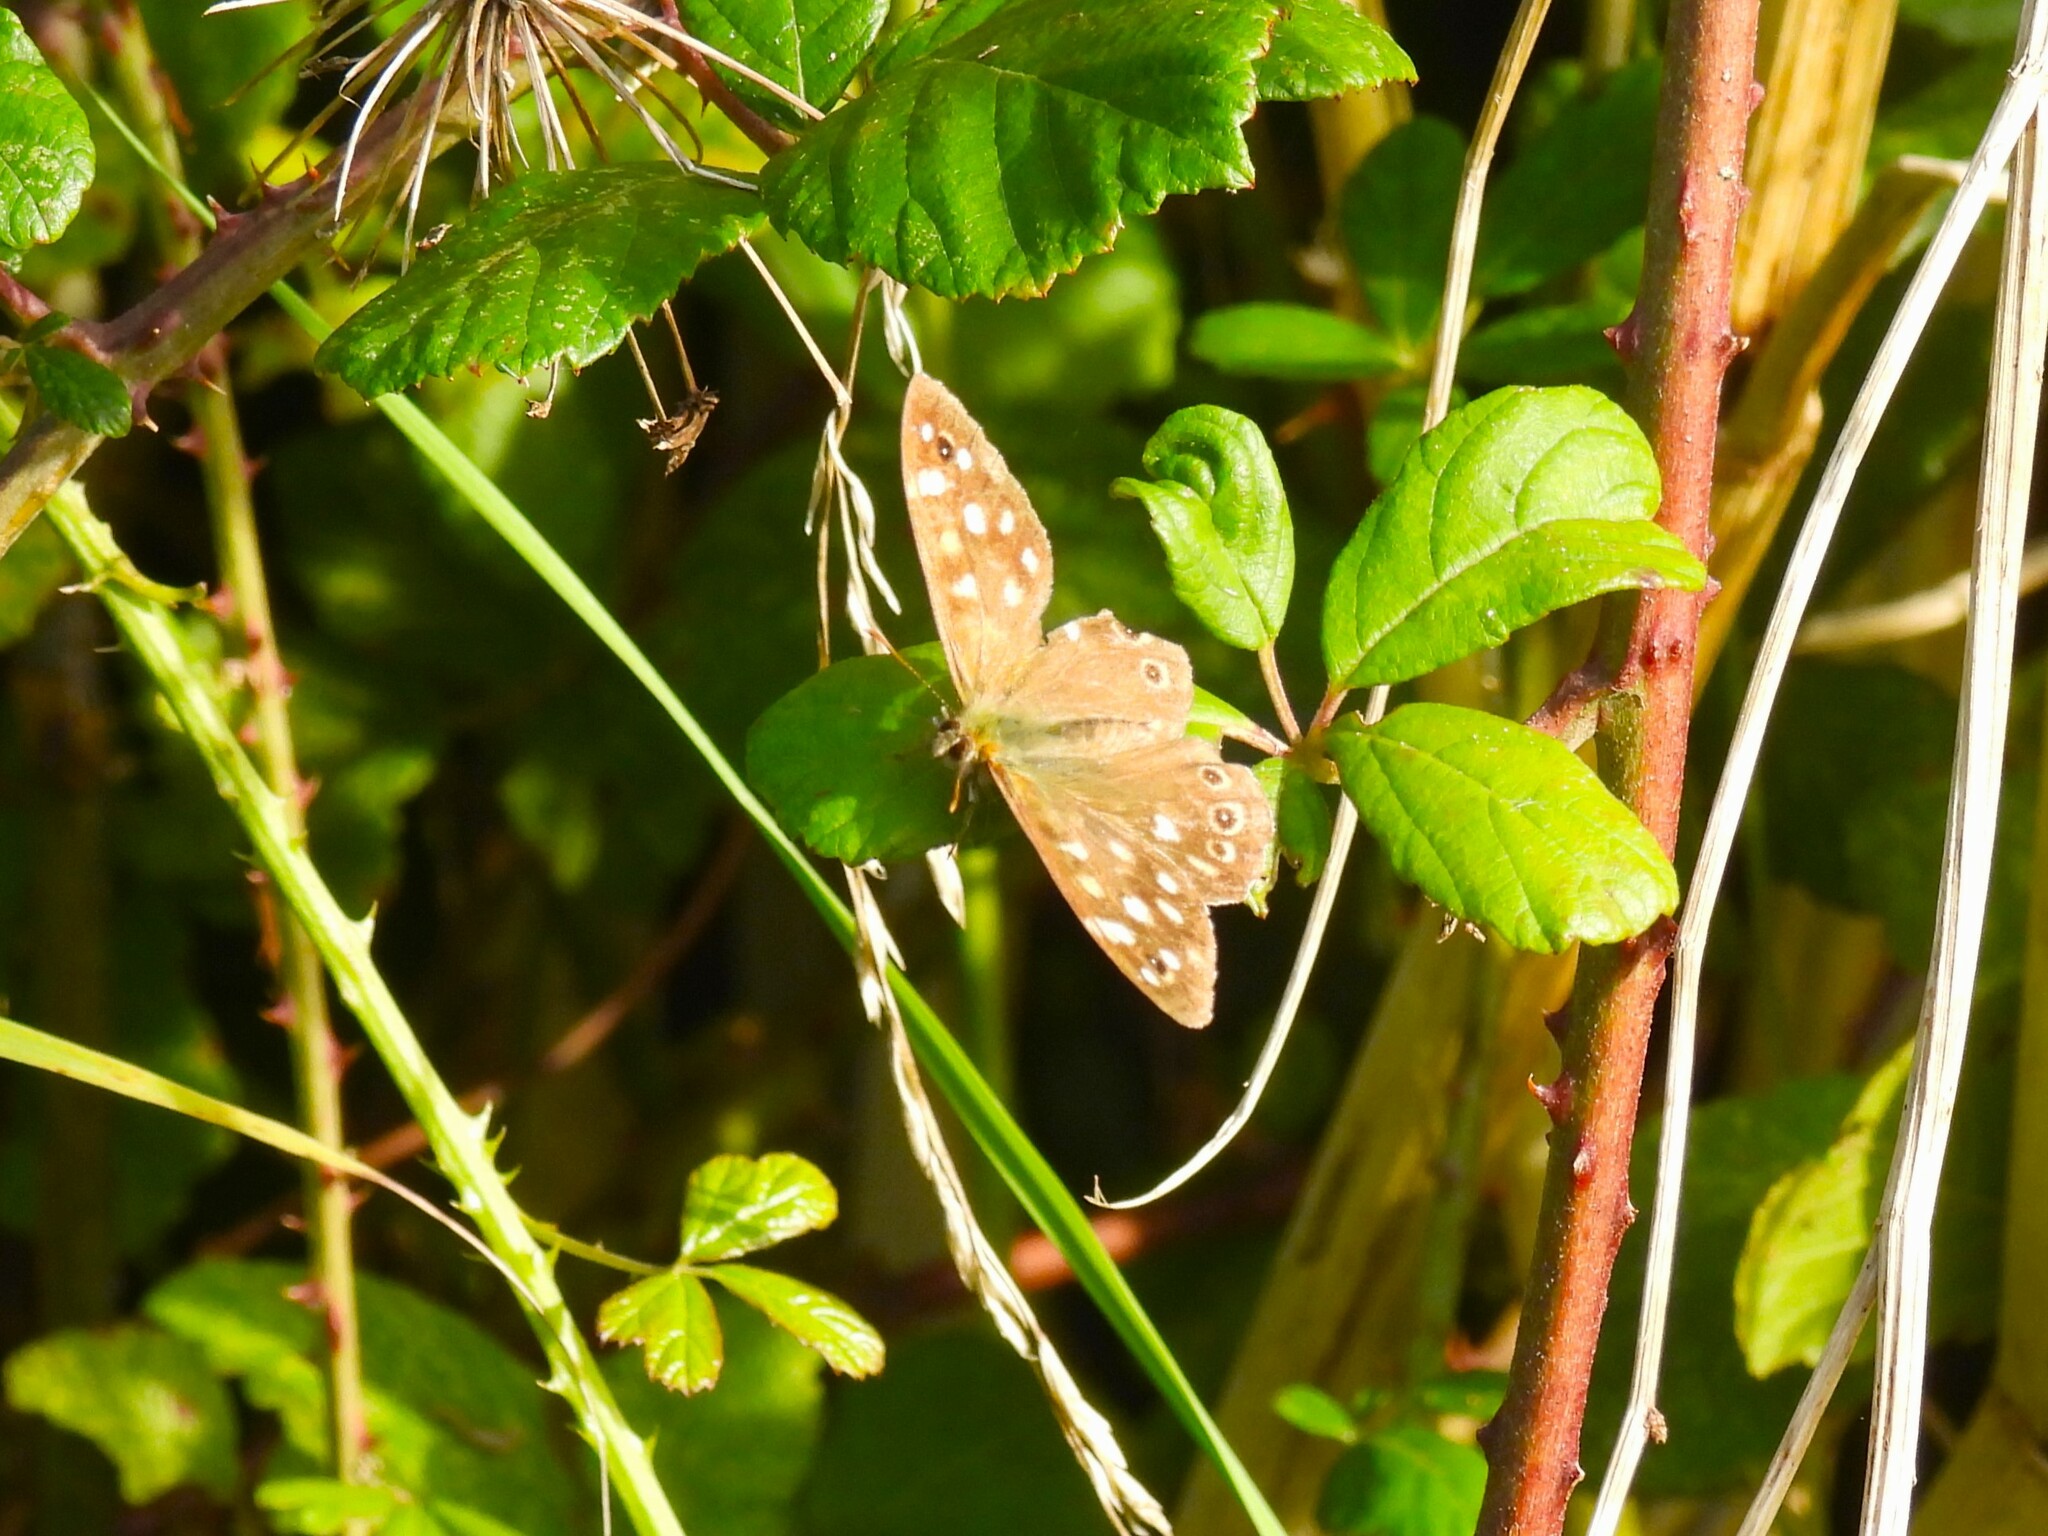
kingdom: Animalia
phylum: Arthropoda
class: Insecta
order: Lepidoptera
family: Nymphalidae
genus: Pararge
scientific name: Pararge aegeria
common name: Speckled wood
